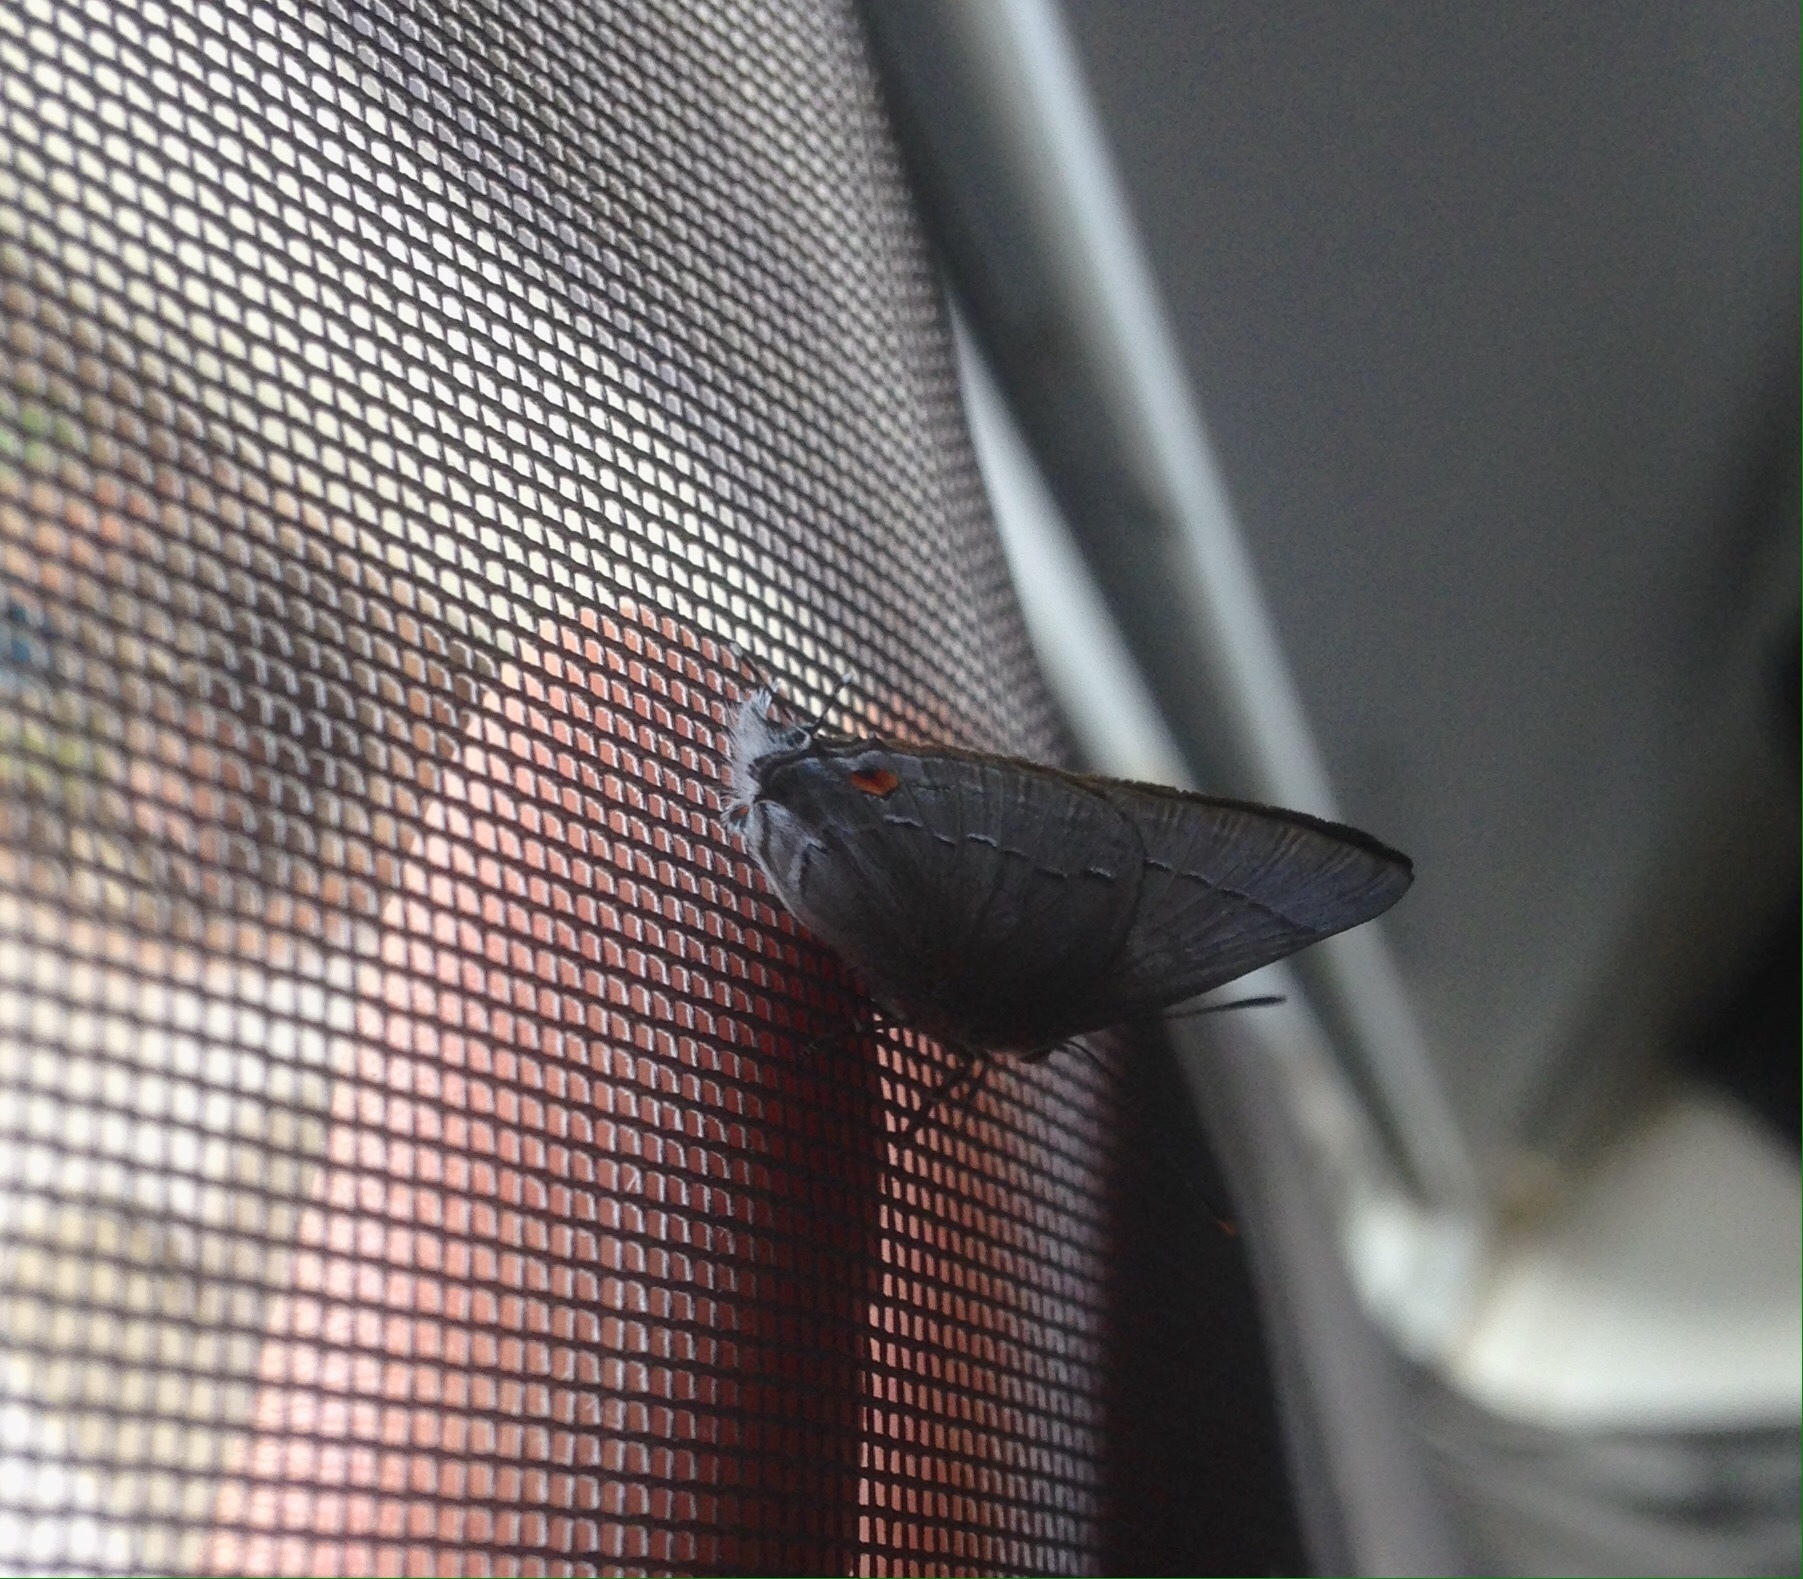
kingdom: Animalia
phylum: Arthropoda
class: Insecta
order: Lepidoptera
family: Lycaenidae
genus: Thecla
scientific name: Thecla marius
